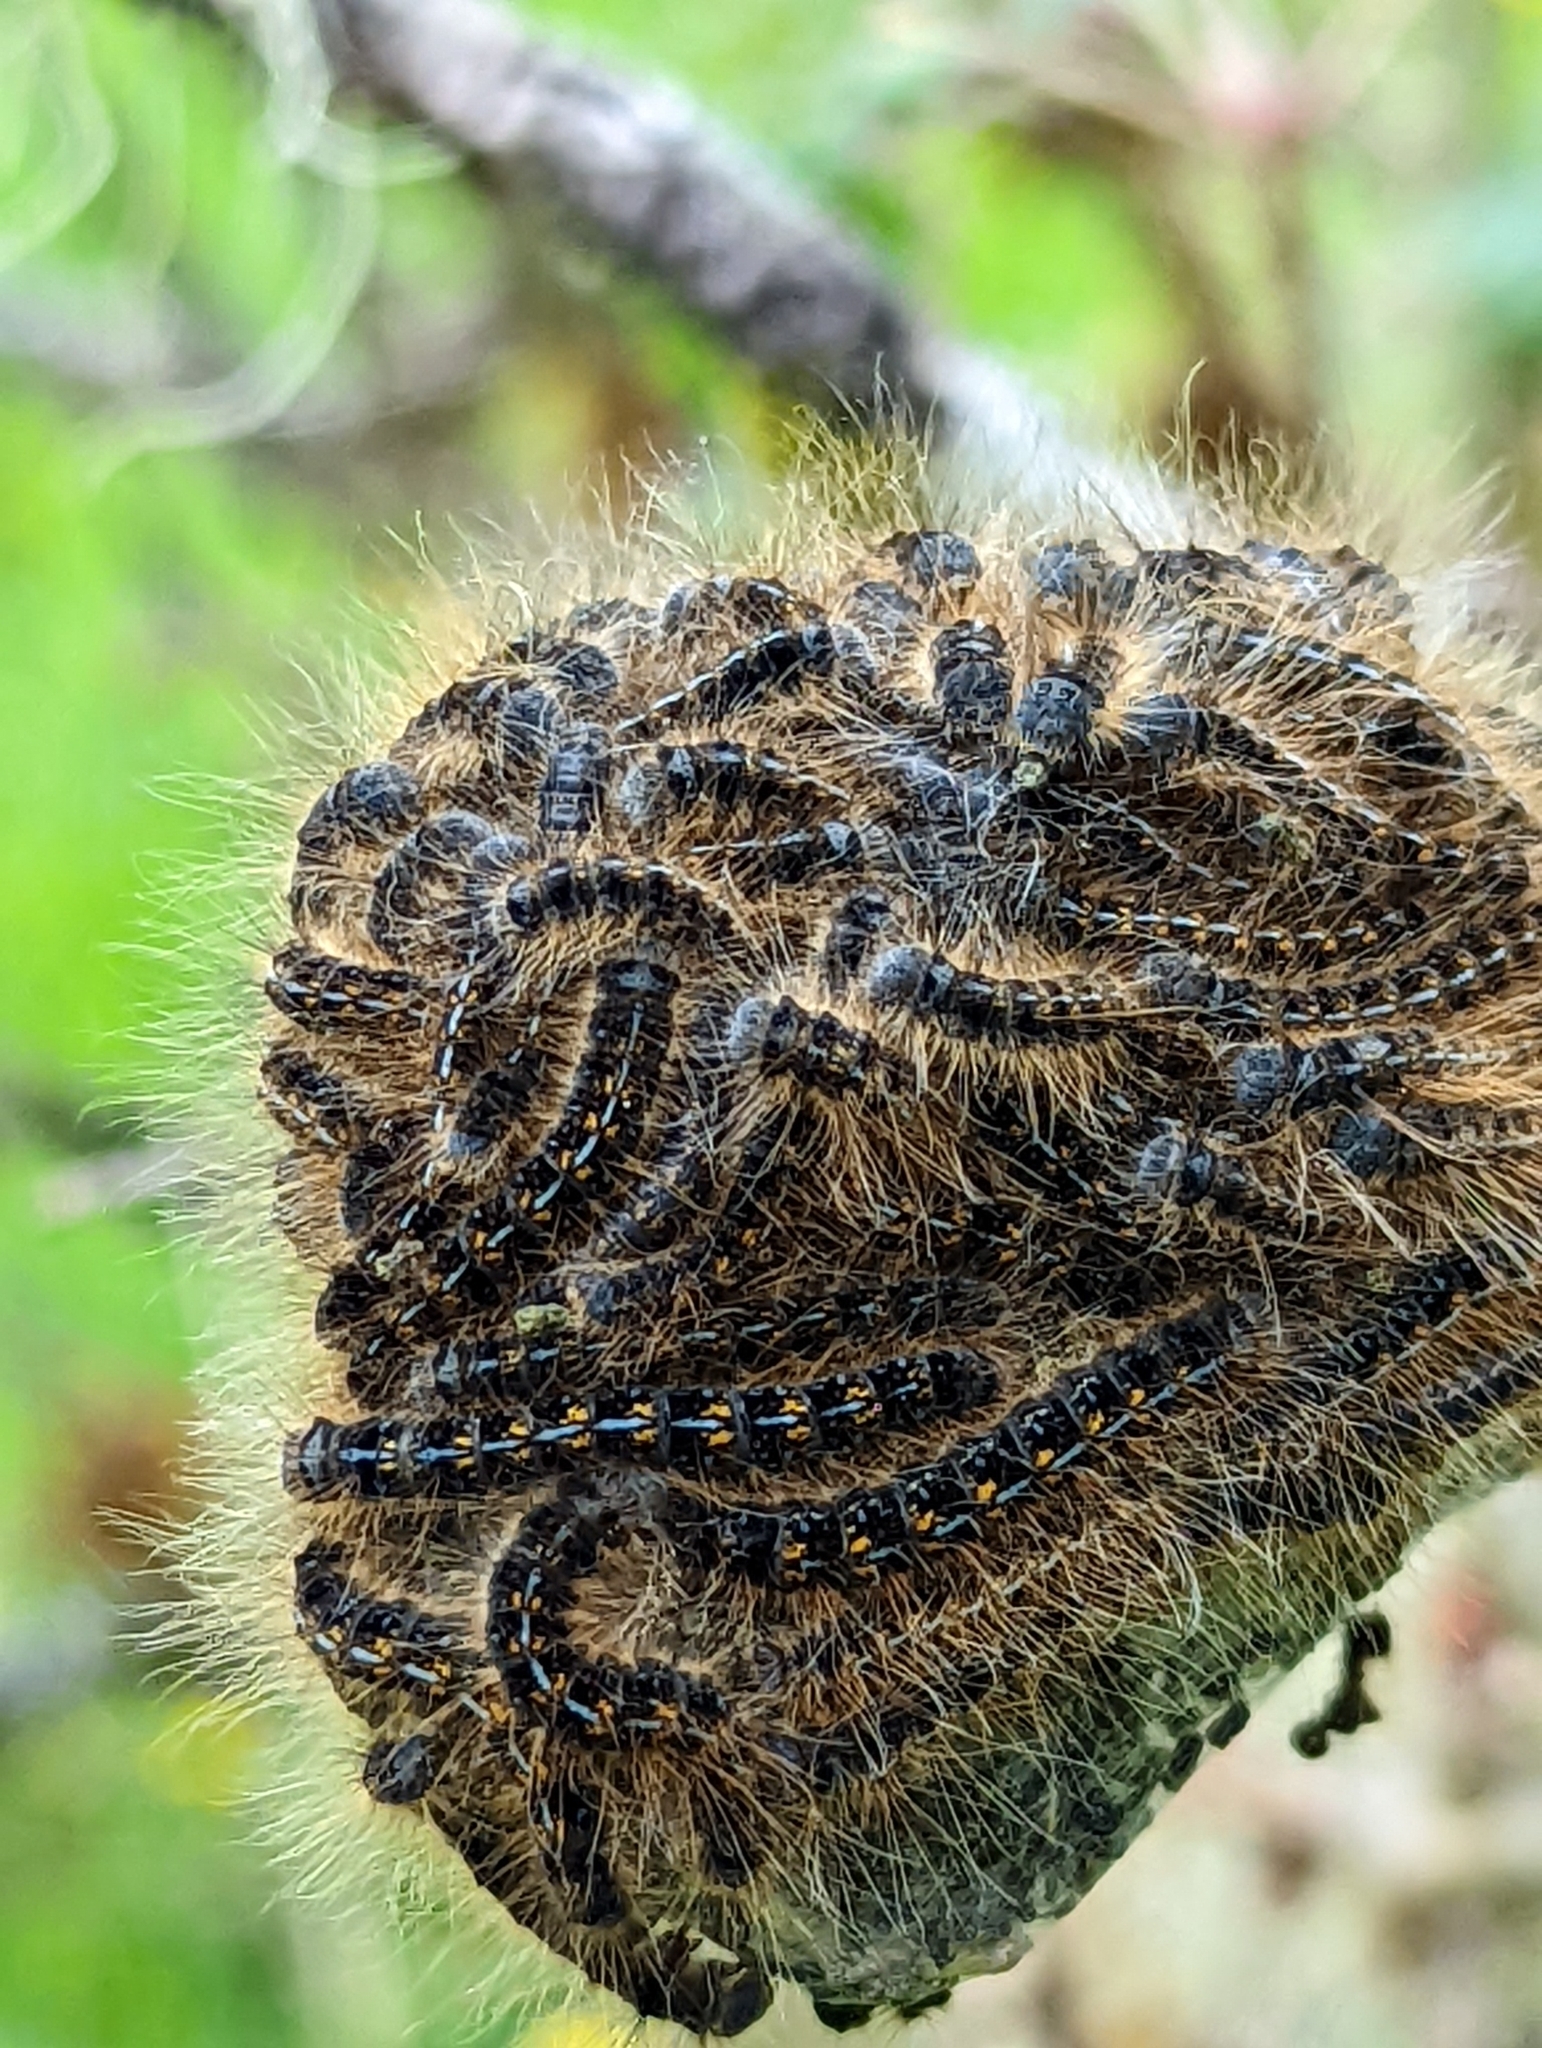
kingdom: Animalia
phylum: Arthropoda
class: Insecta
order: Lepidoptera
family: Lasiocampidae
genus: Malacosoma
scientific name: Malacosoma californica
